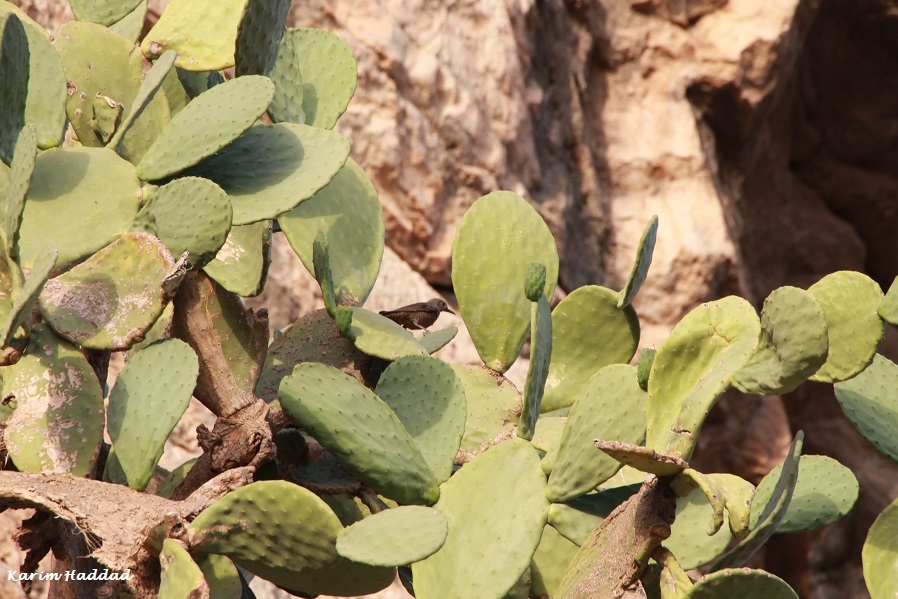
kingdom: Plantae
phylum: Tracheophyta
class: Magnoliopsida
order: Caryophyllales
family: Cactaceae
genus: Opuntia
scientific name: Opuntia ficus-indica
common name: Barbary fig
